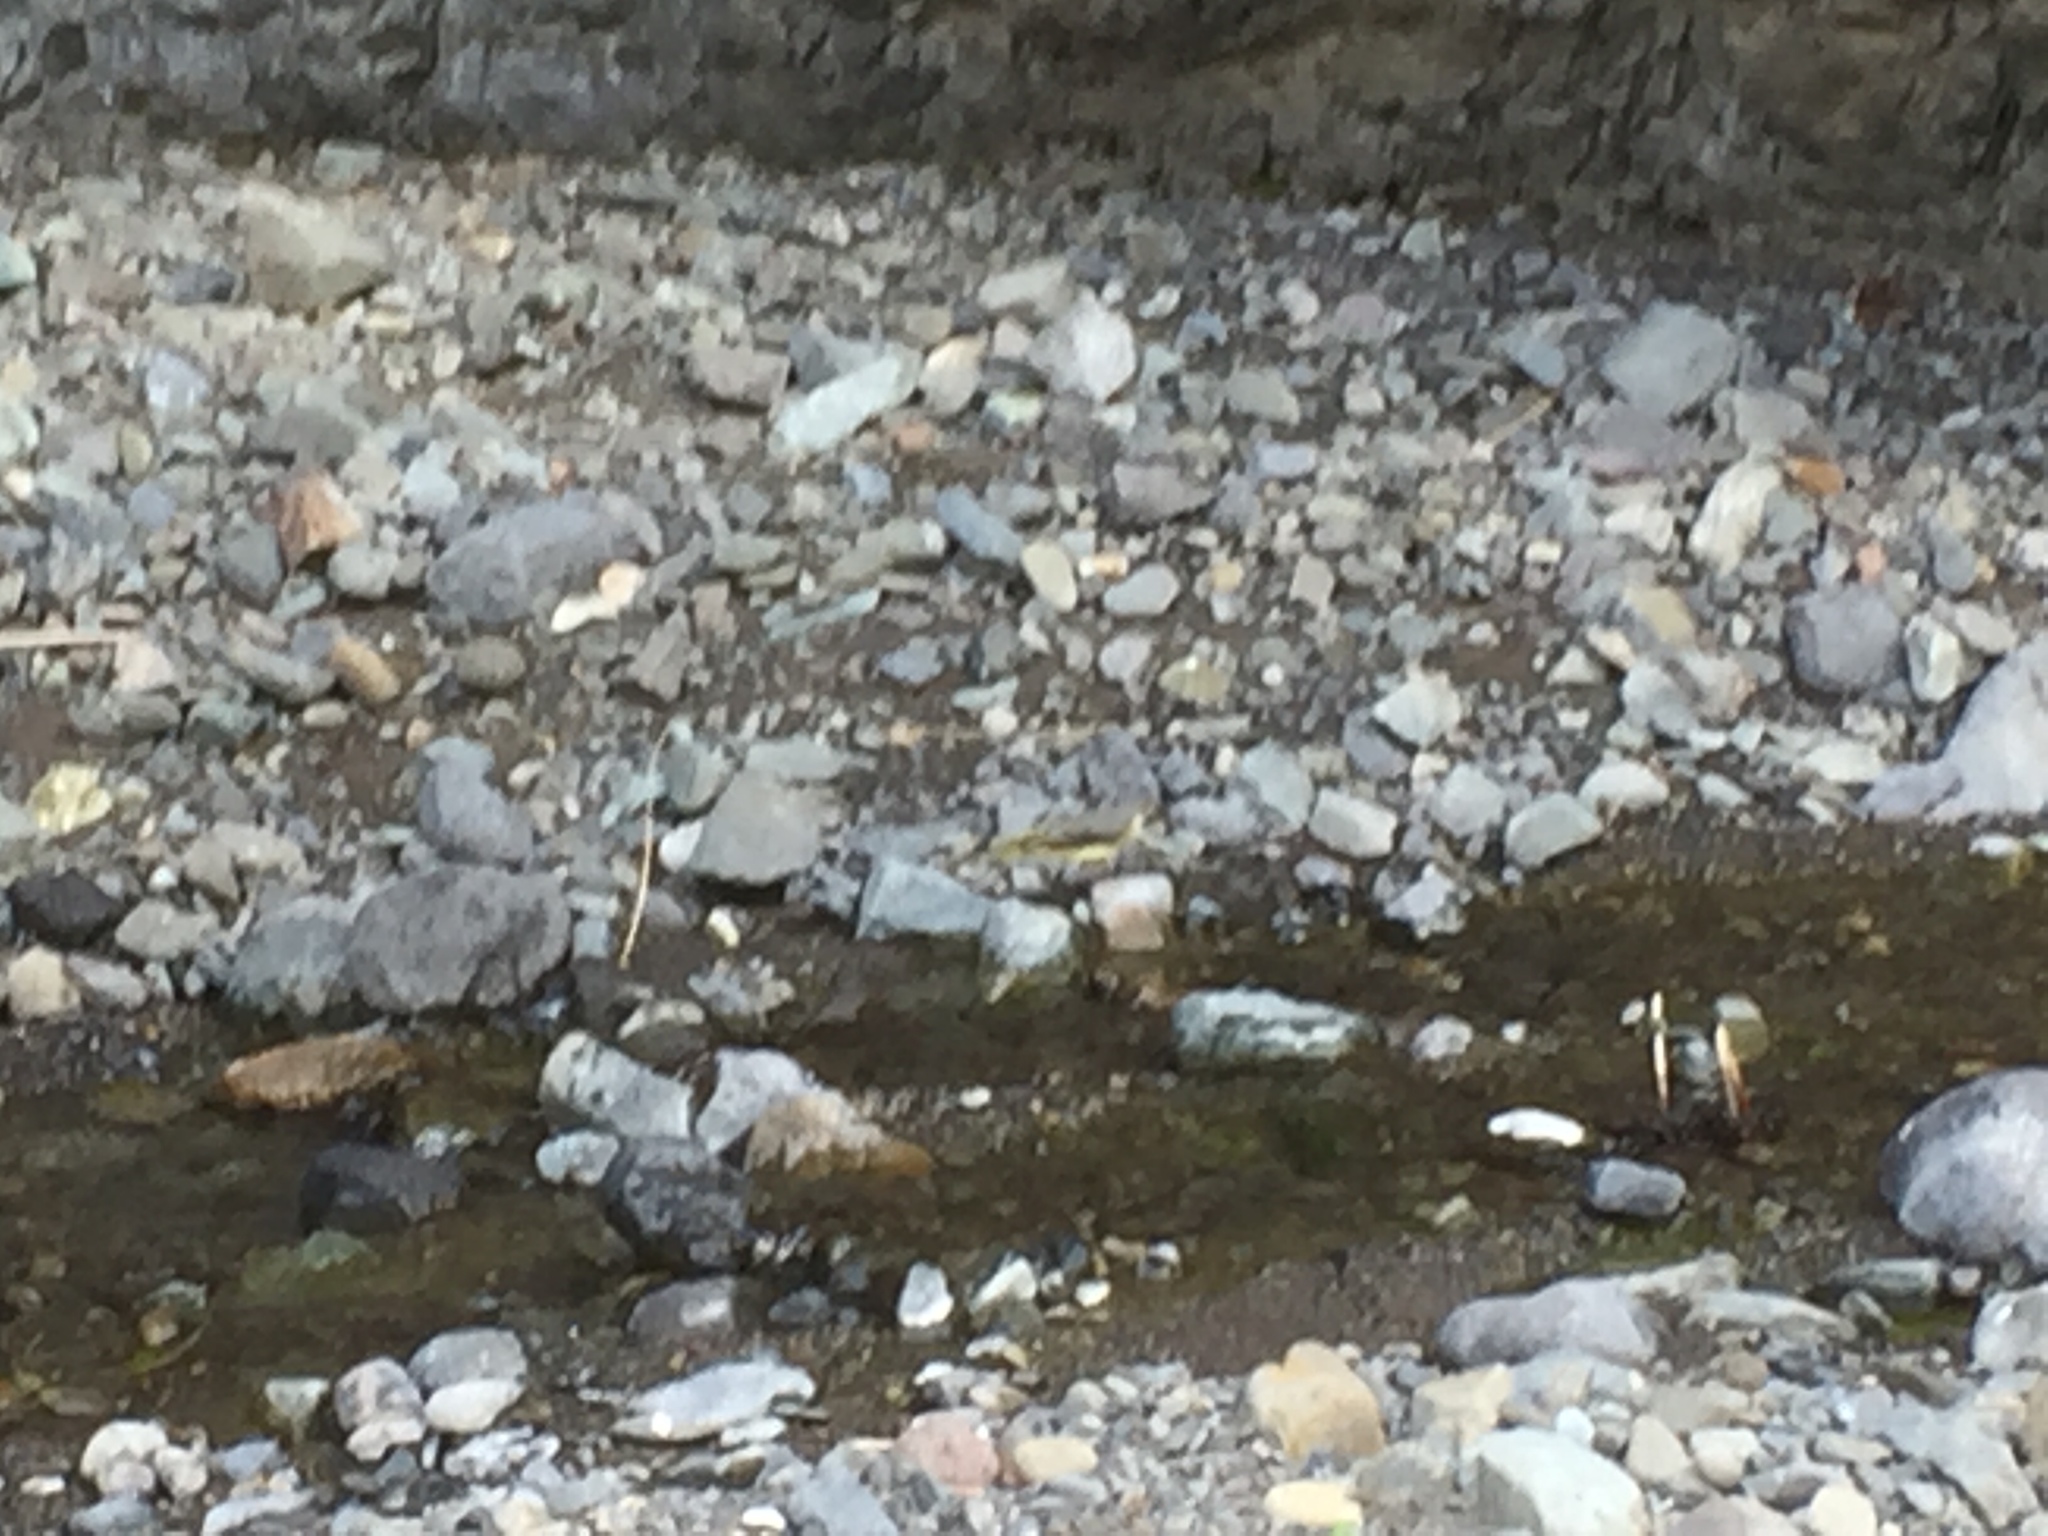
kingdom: Animalia
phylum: Chordata
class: Aves
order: Passeriformes
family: Motacillidae
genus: Motacilla
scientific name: Motacilla cinerea
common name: Grey wagtail
